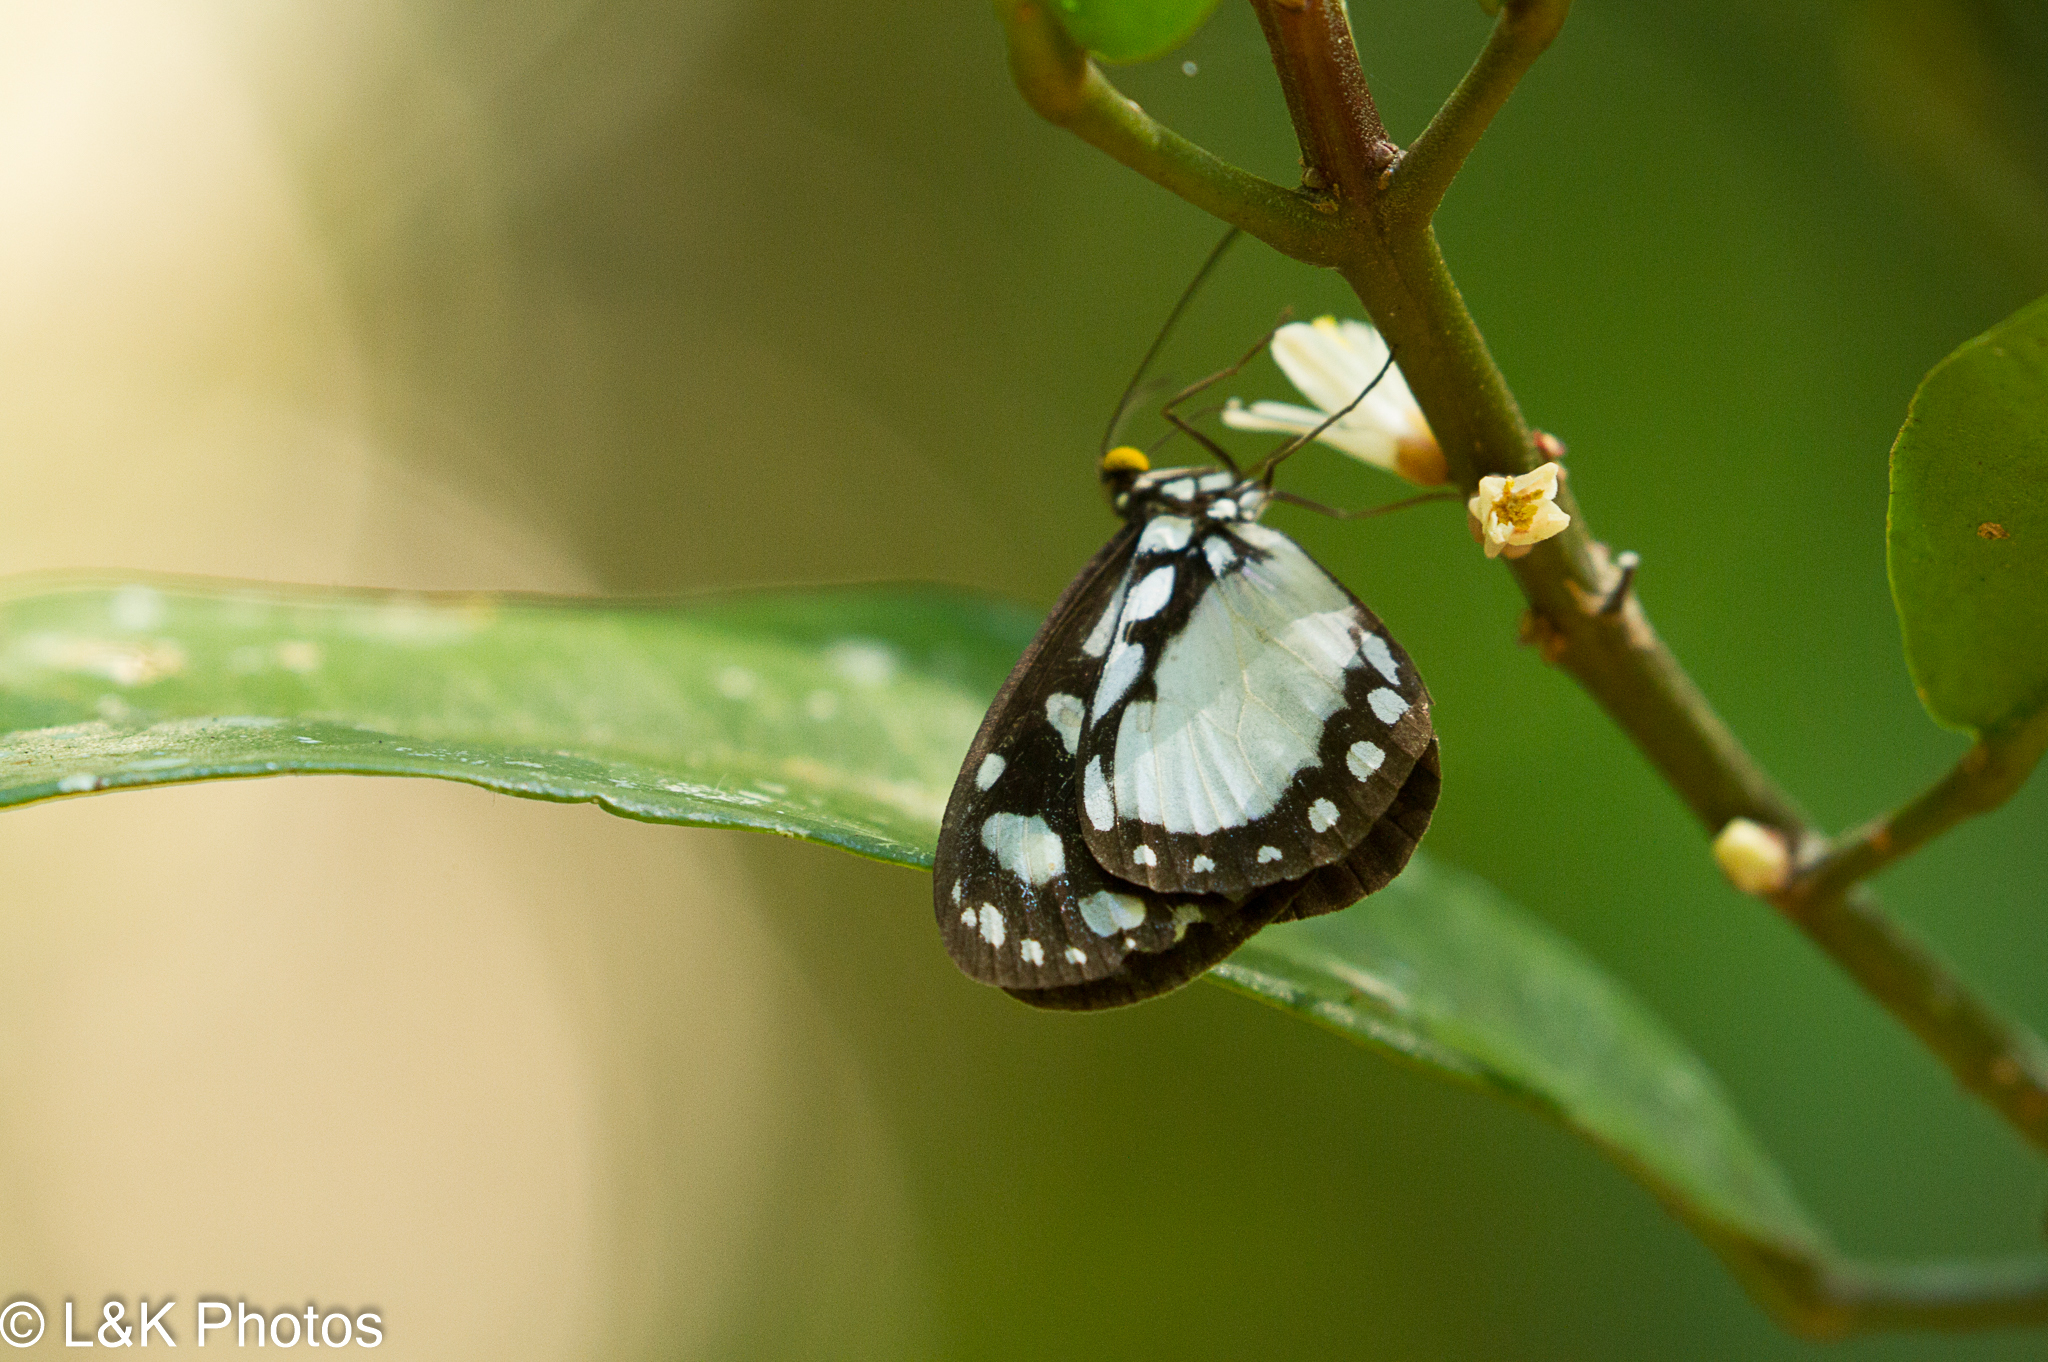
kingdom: Animalia
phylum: Arthropoda
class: Insecta
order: Lepidoptera
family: Nymphalidae
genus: Tellervo
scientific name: Tellervo zoilus
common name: Hamadryad
